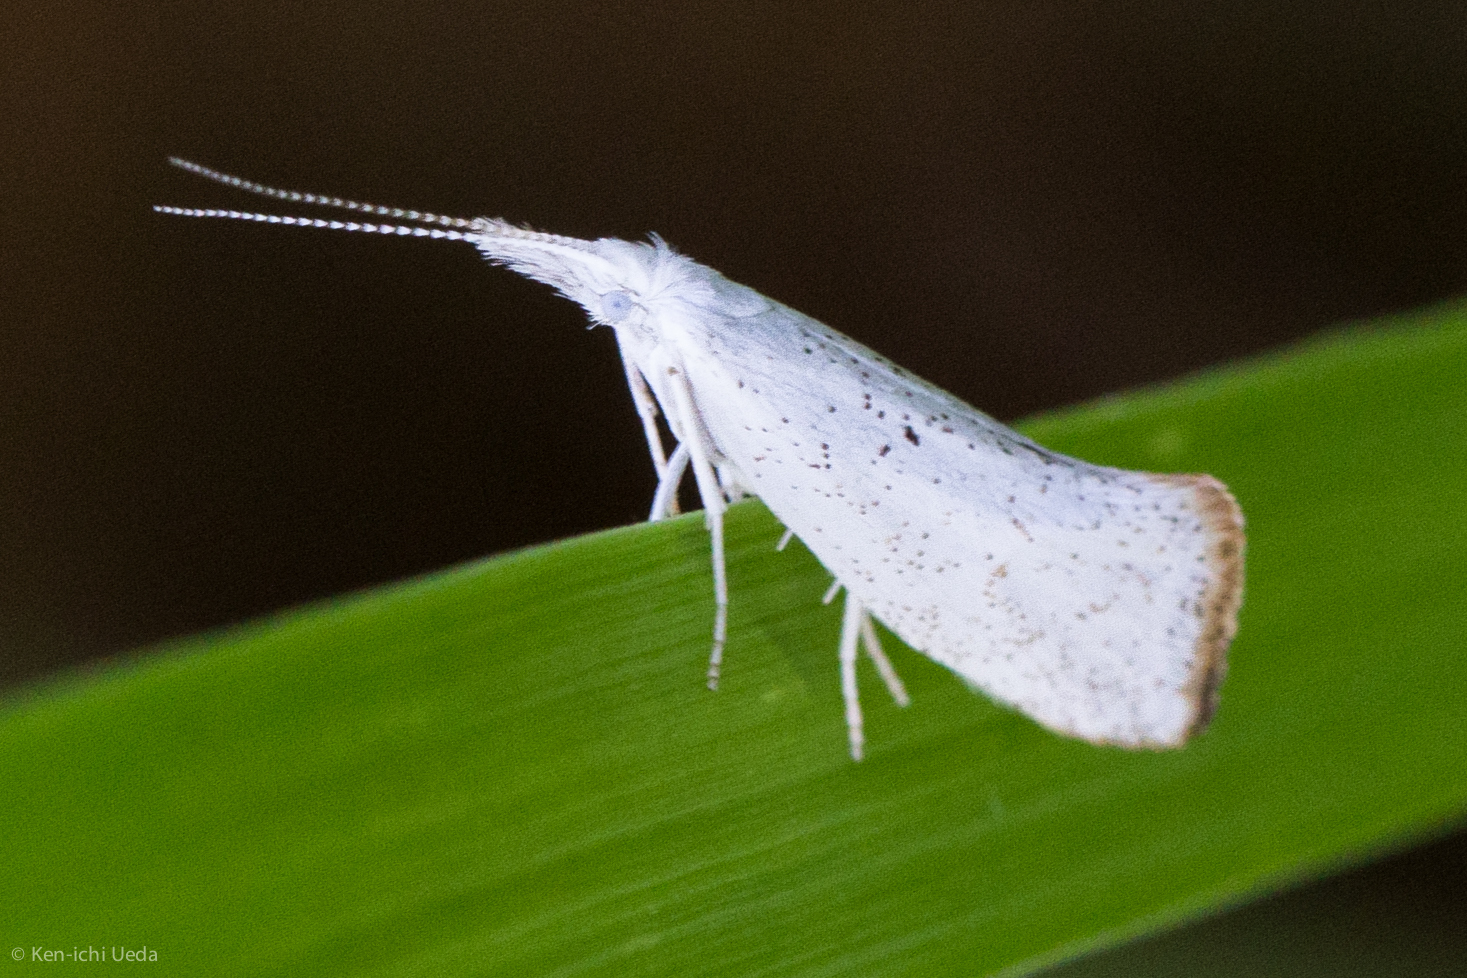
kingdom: Animalia
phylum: Arthropoda
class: Insecta
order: Lepidoptera
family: Ypsolophidae
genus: Euceratia
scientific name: Euceratia castella
